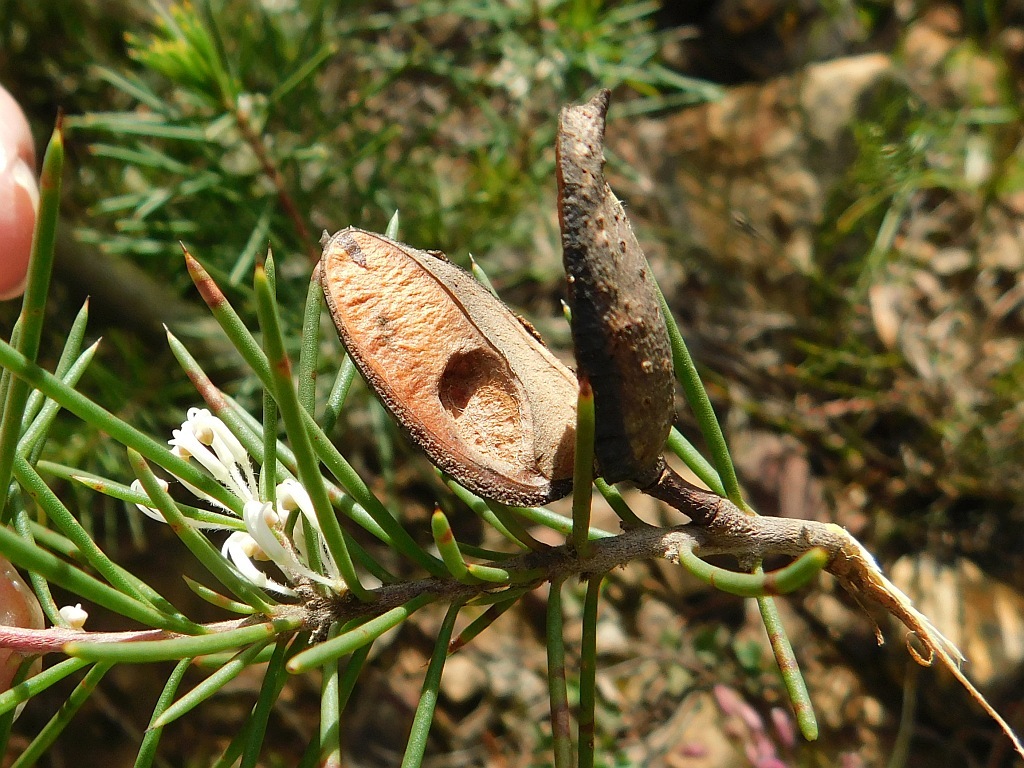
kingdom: Plantae
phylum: Tracheophyta
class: Magnoliopsida
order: Proteales
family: Proteaceae
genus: Hakea
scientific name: Hakea sericea
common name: Needle bush
